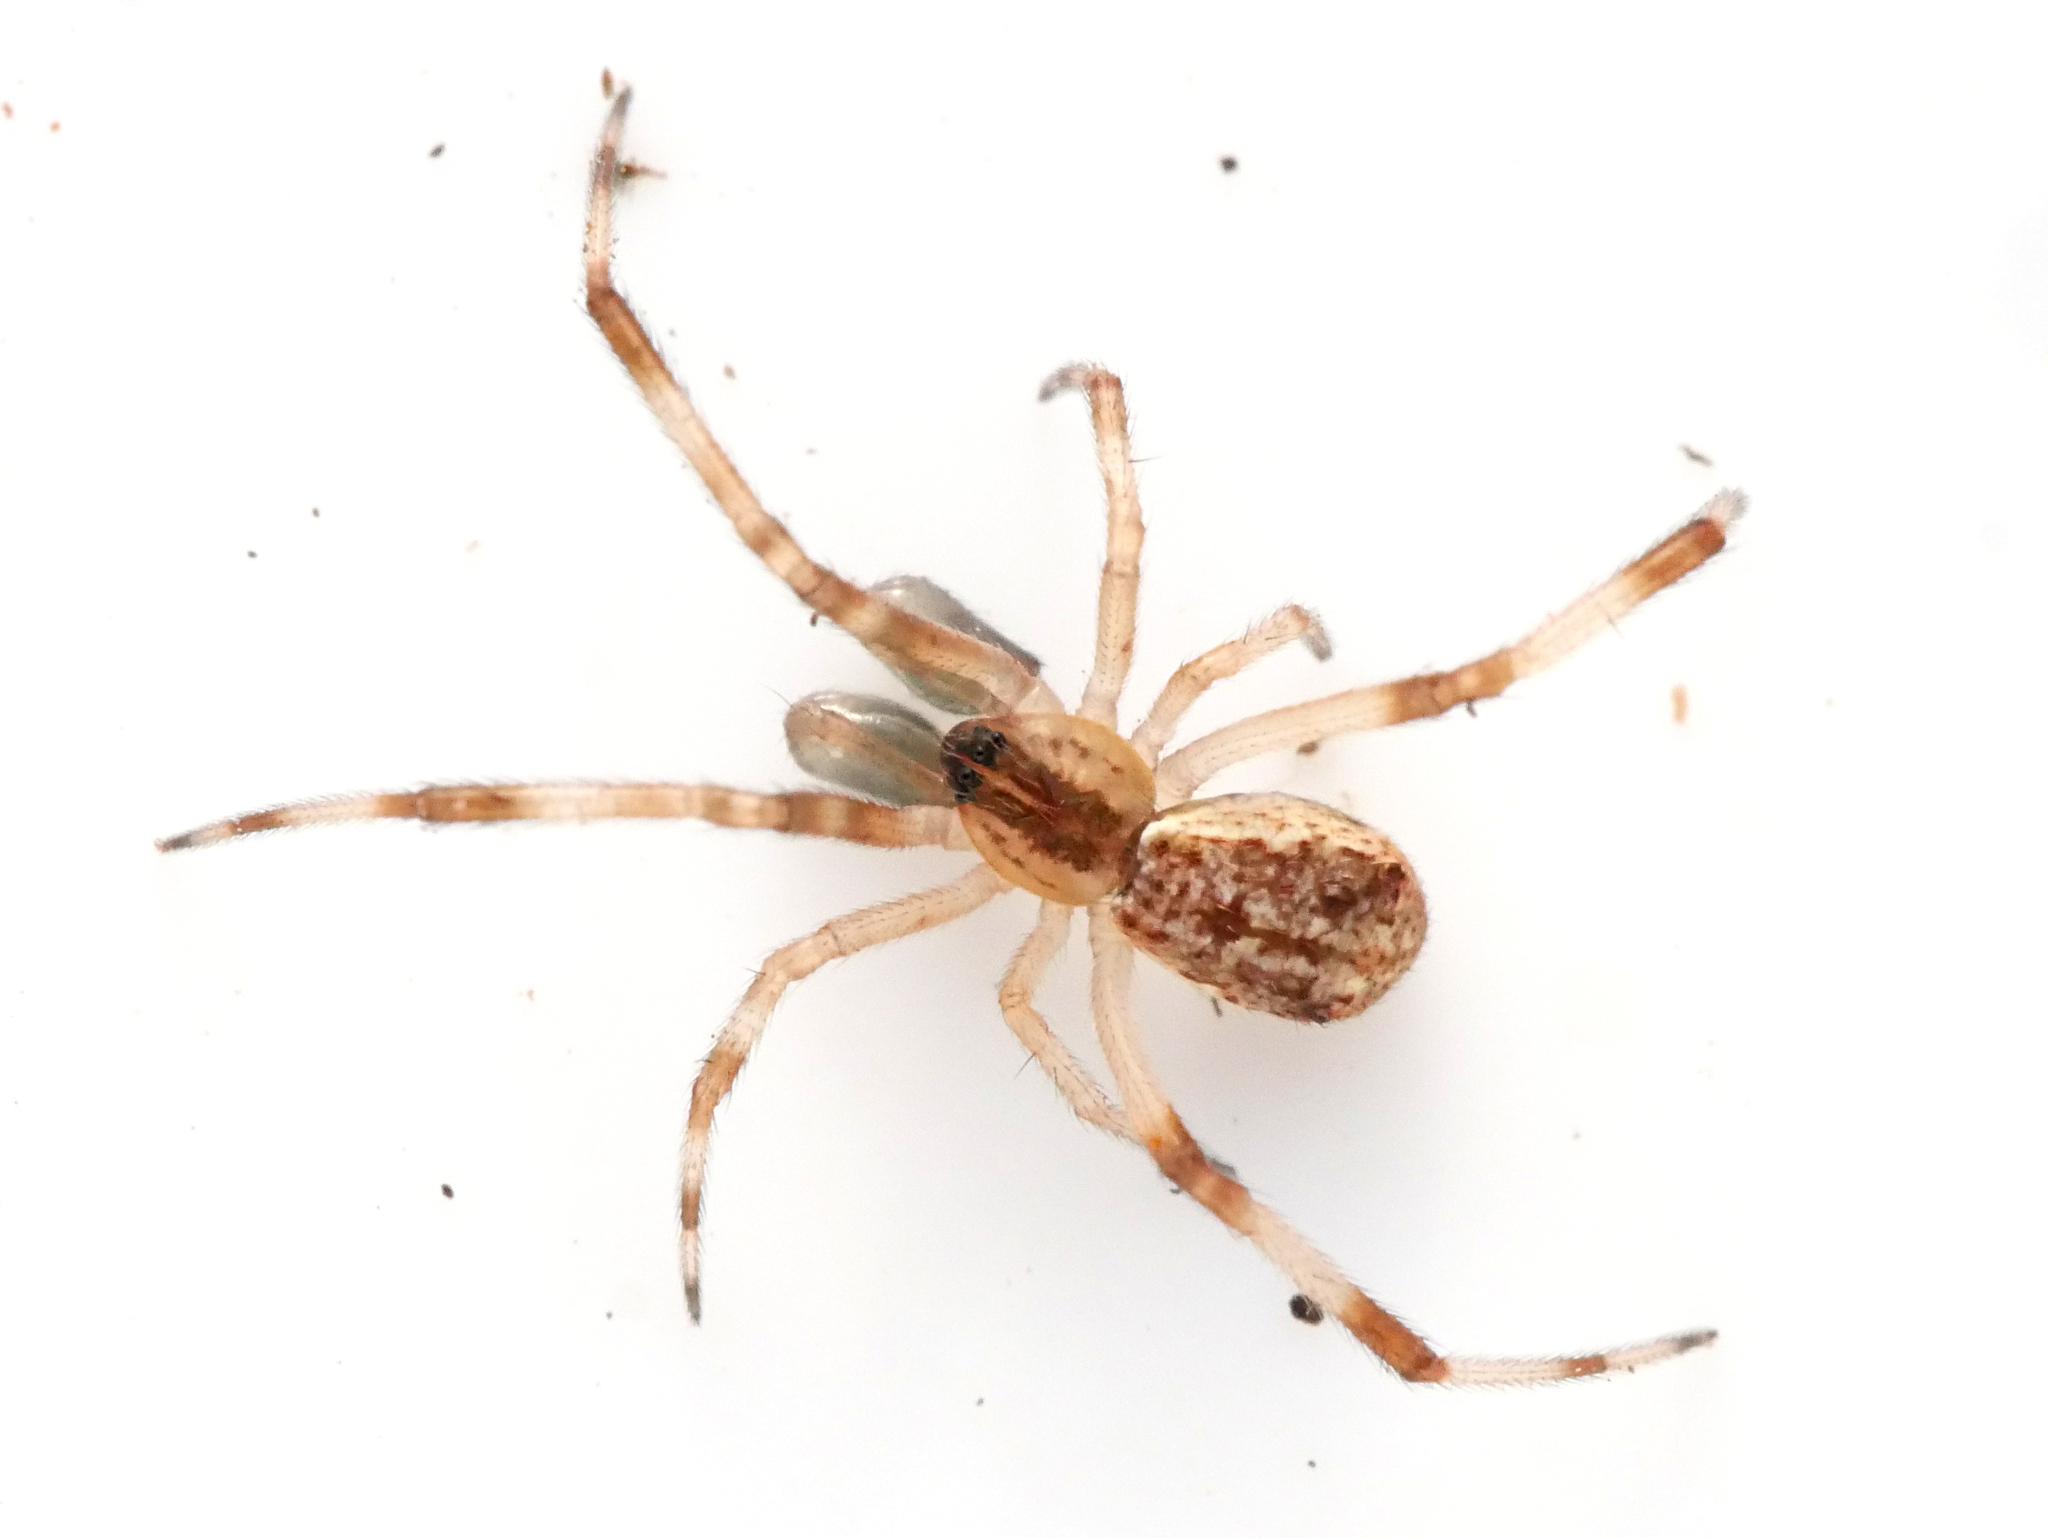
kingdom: Animalia
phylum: Arthropoda
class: Arachnida
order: Araneae
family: Theridiidae
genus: Episinus
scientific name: Episinus angulatus
